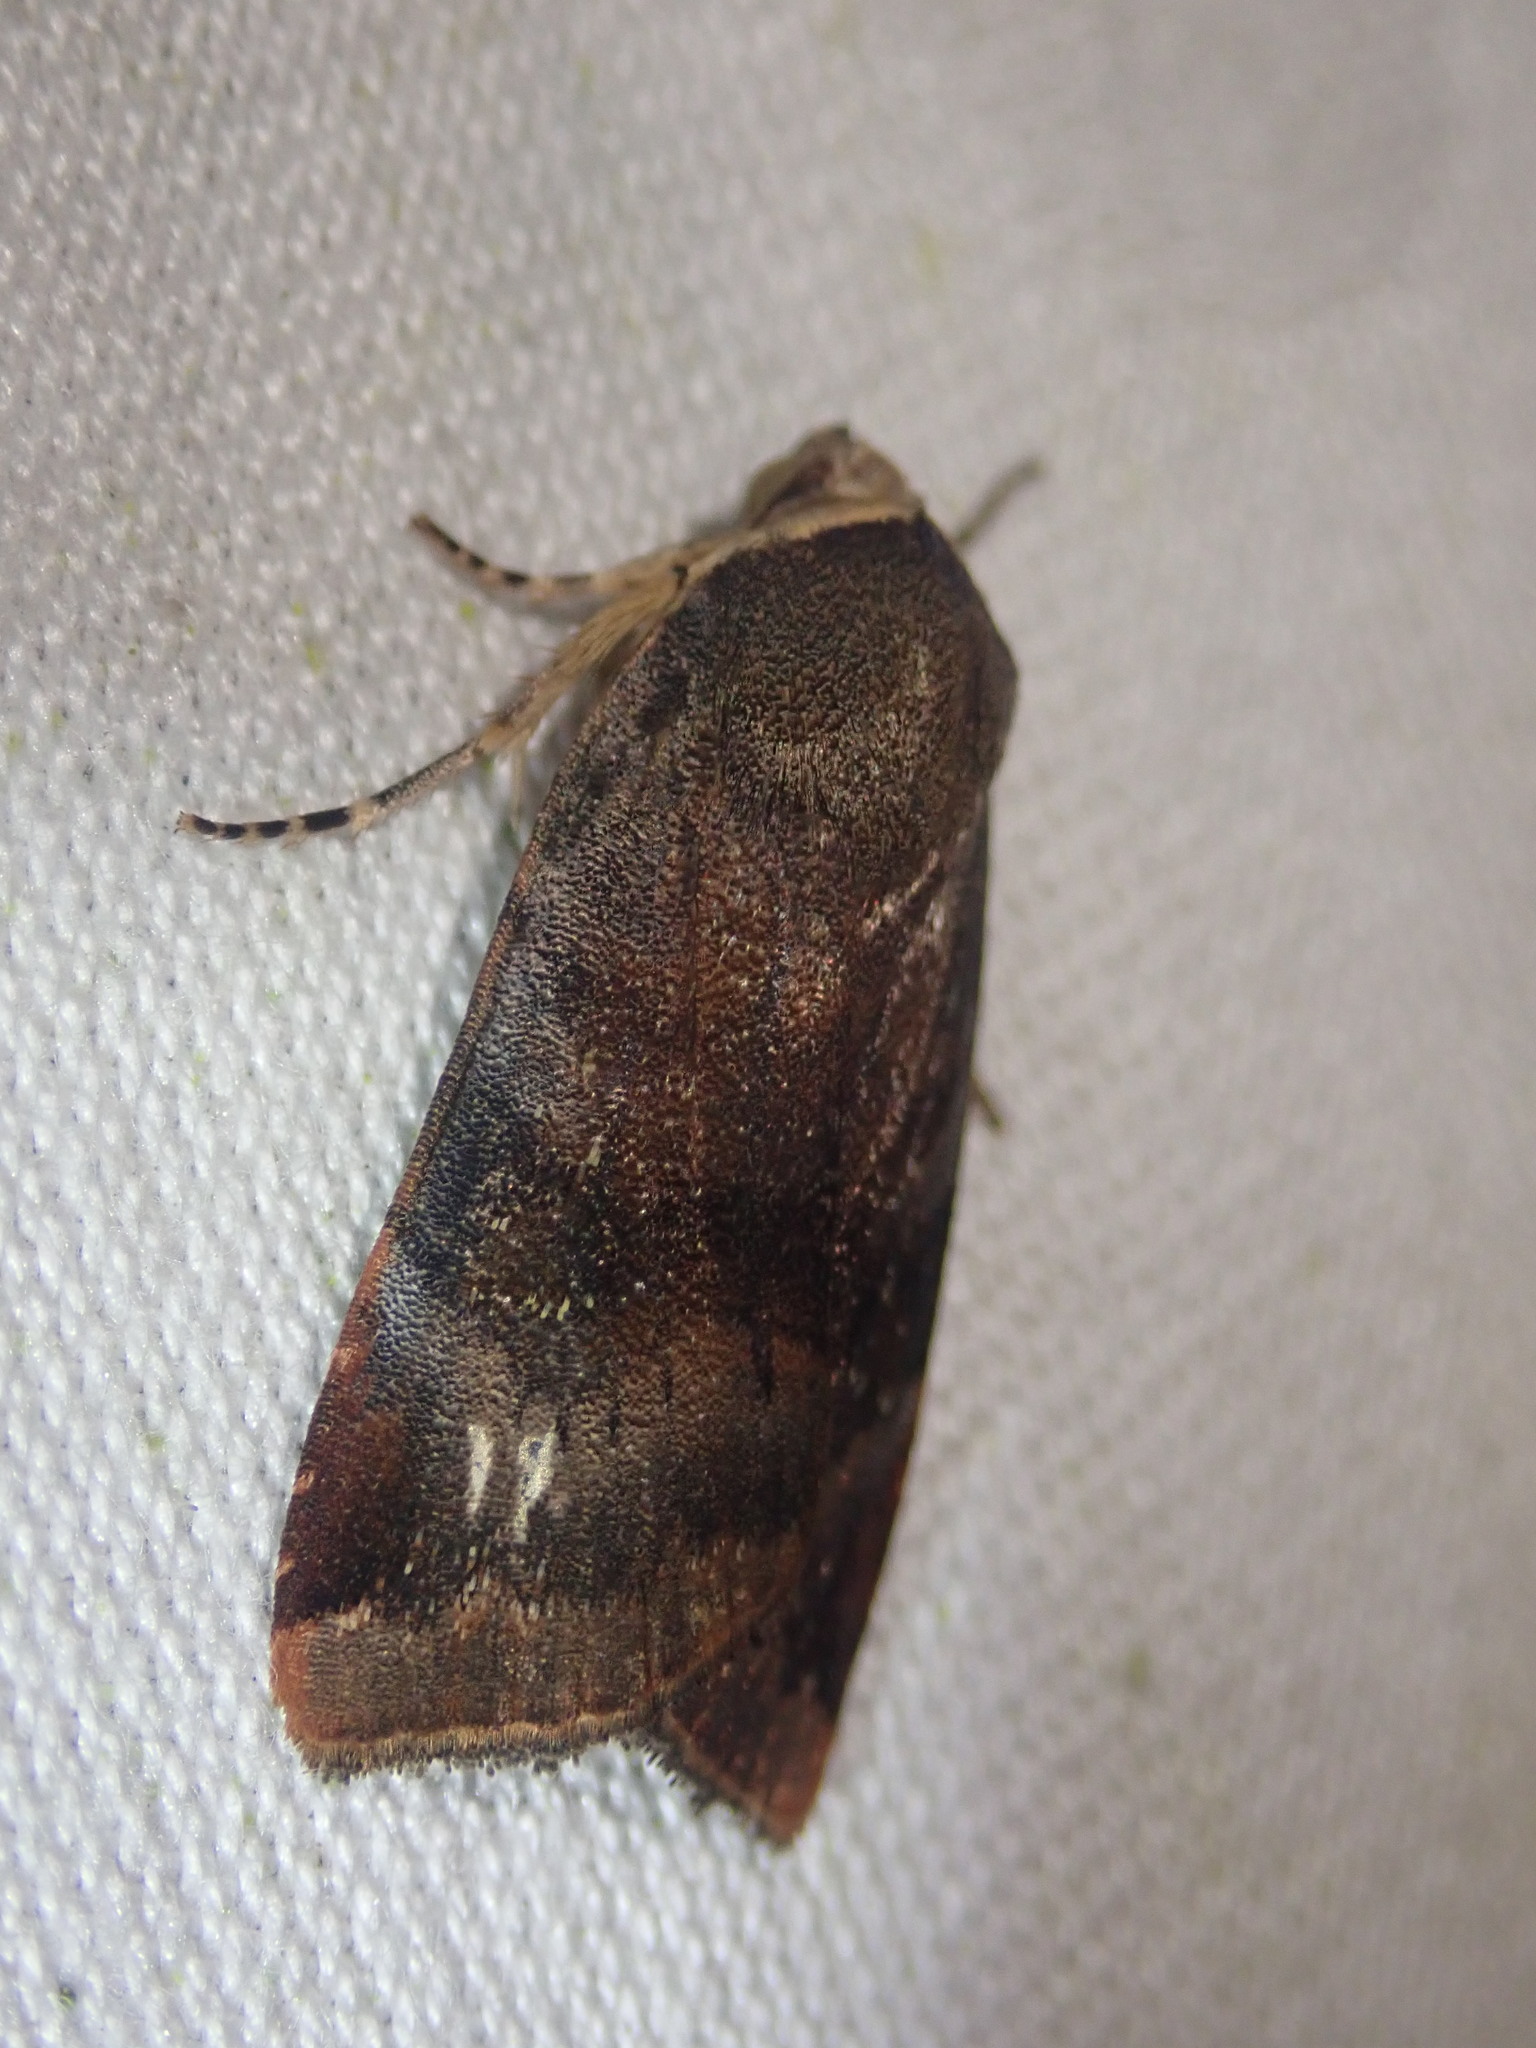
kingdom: Animalia
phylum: Arthropoda
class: Insecta
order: Lepidoptera
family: Noctuidae
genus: Noctua
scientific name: Noctua
